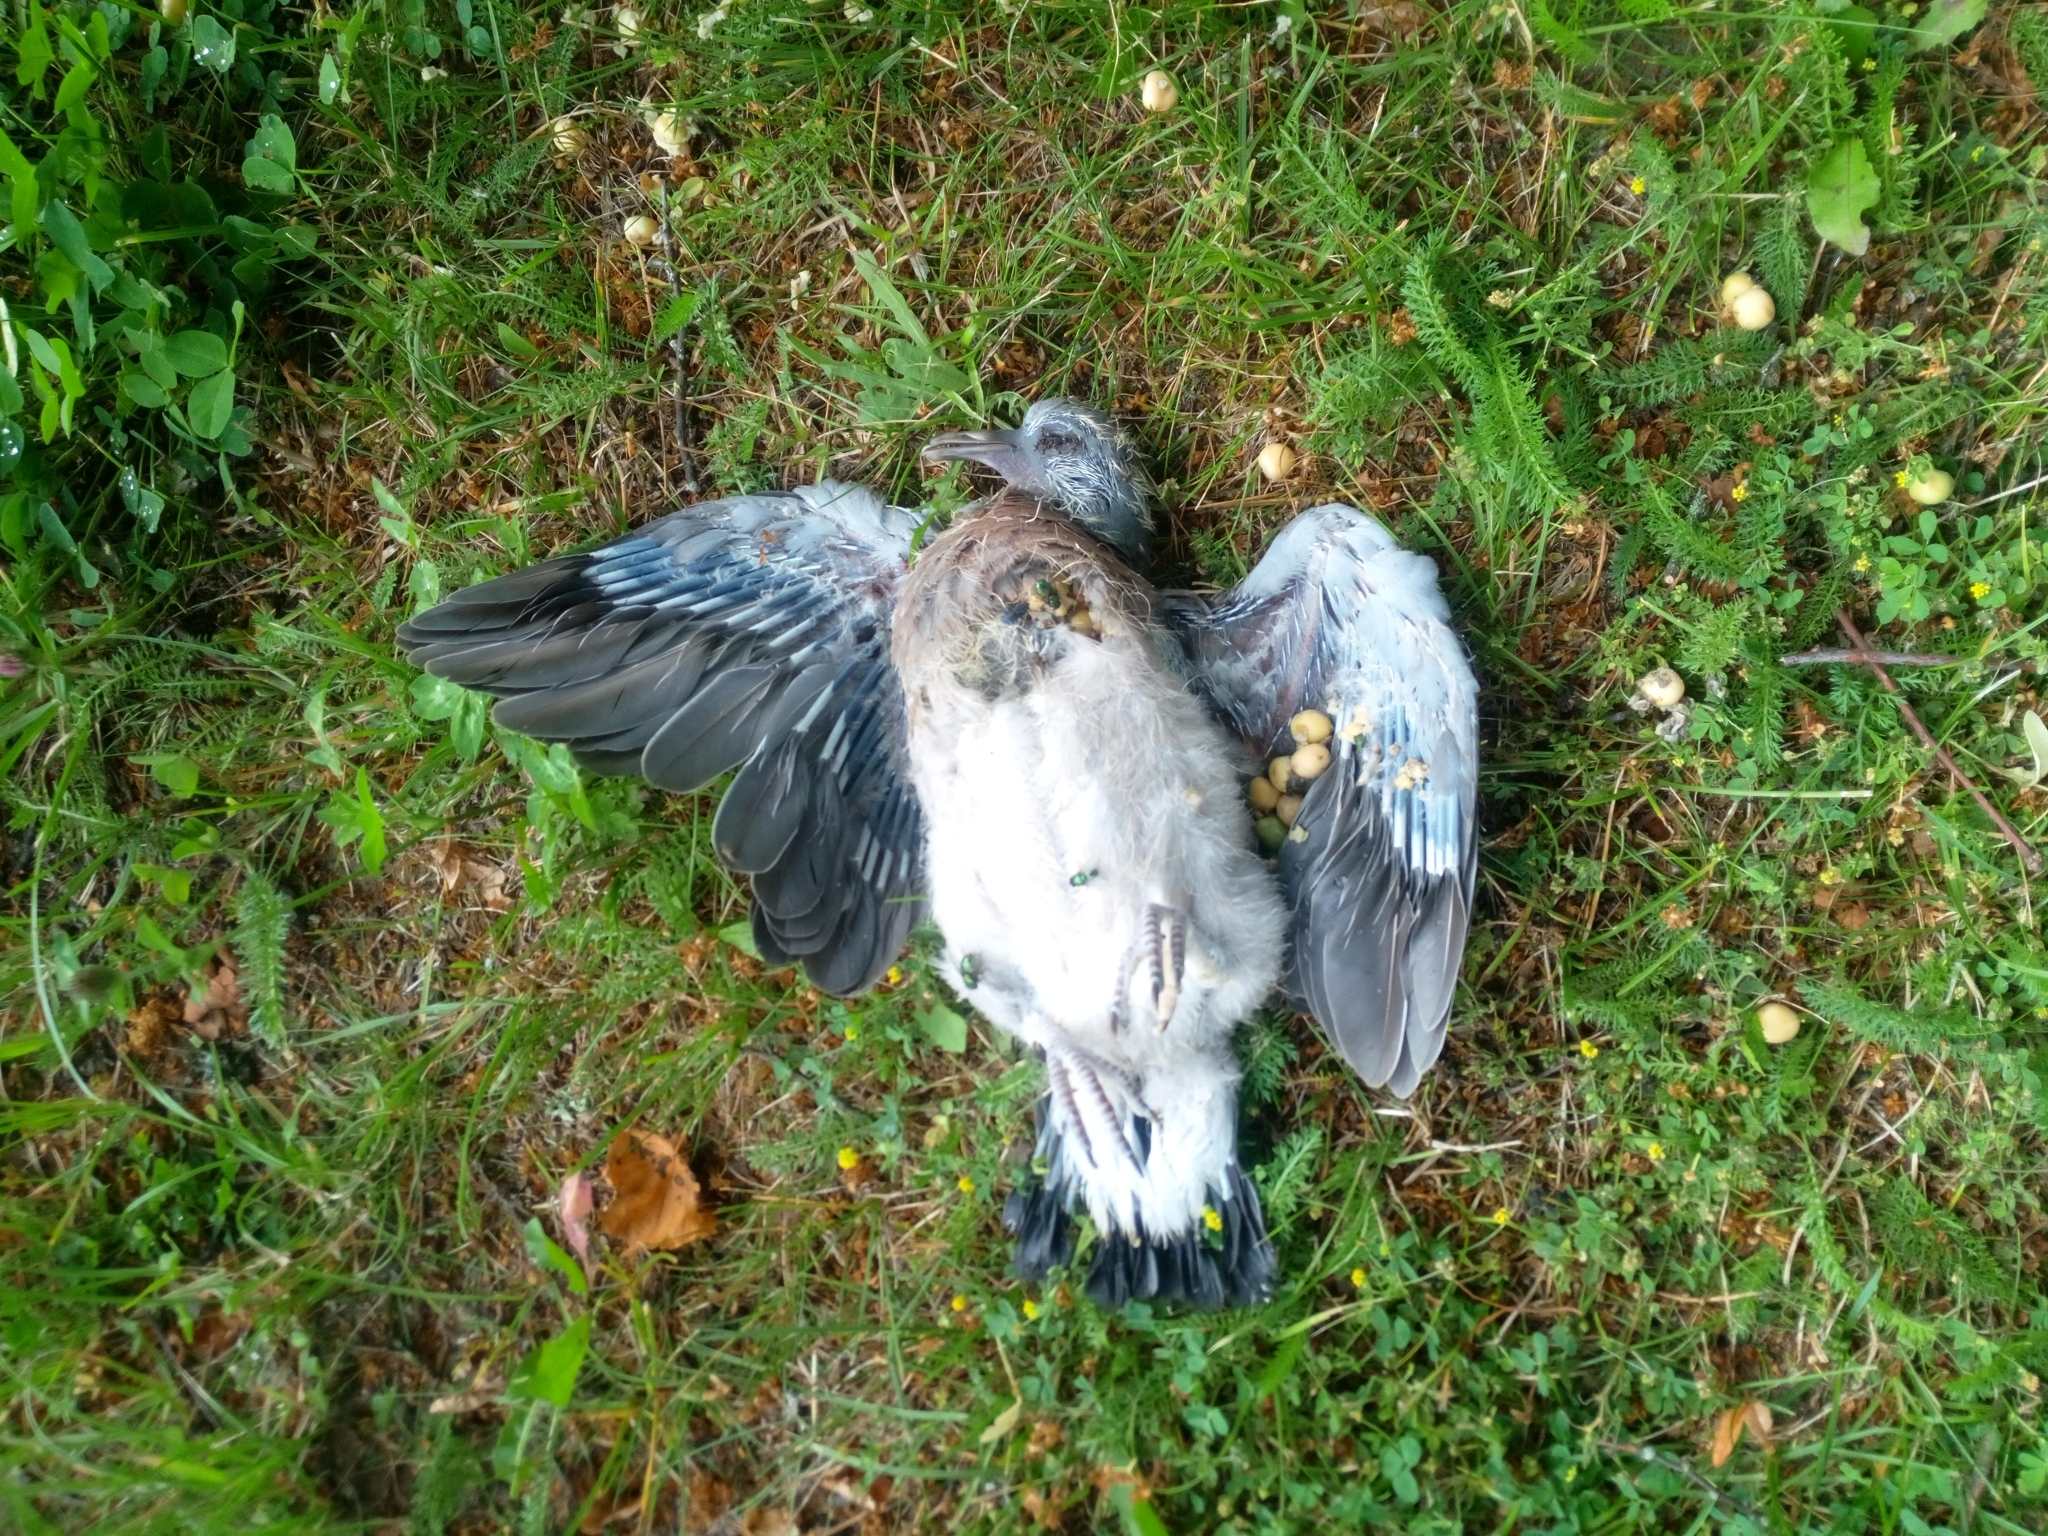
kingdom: Animalia
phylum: Chordata
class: Aves
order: Columbiformes
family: Columbidae
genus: Columba
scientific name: Columba palumbus
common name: Common wood pigeon
